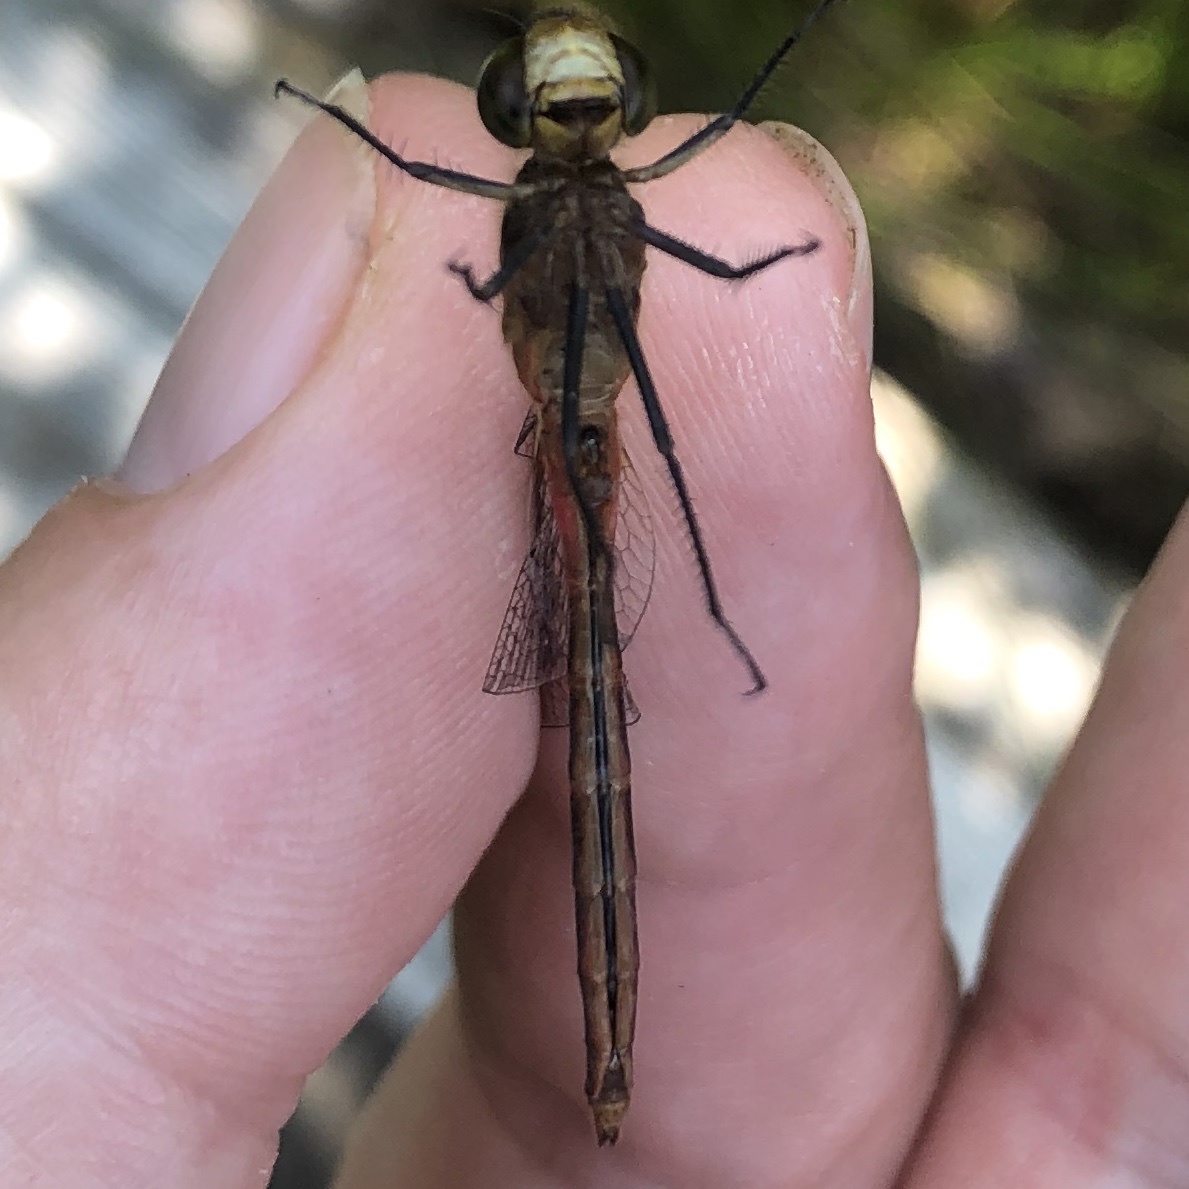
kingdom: Animalia
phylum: Arthropoda
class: Insecta
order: Odonata
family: Libellulidae
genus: Sympetrum
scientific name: Sympetrum internum
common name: Cherry-faced meadowhawk
